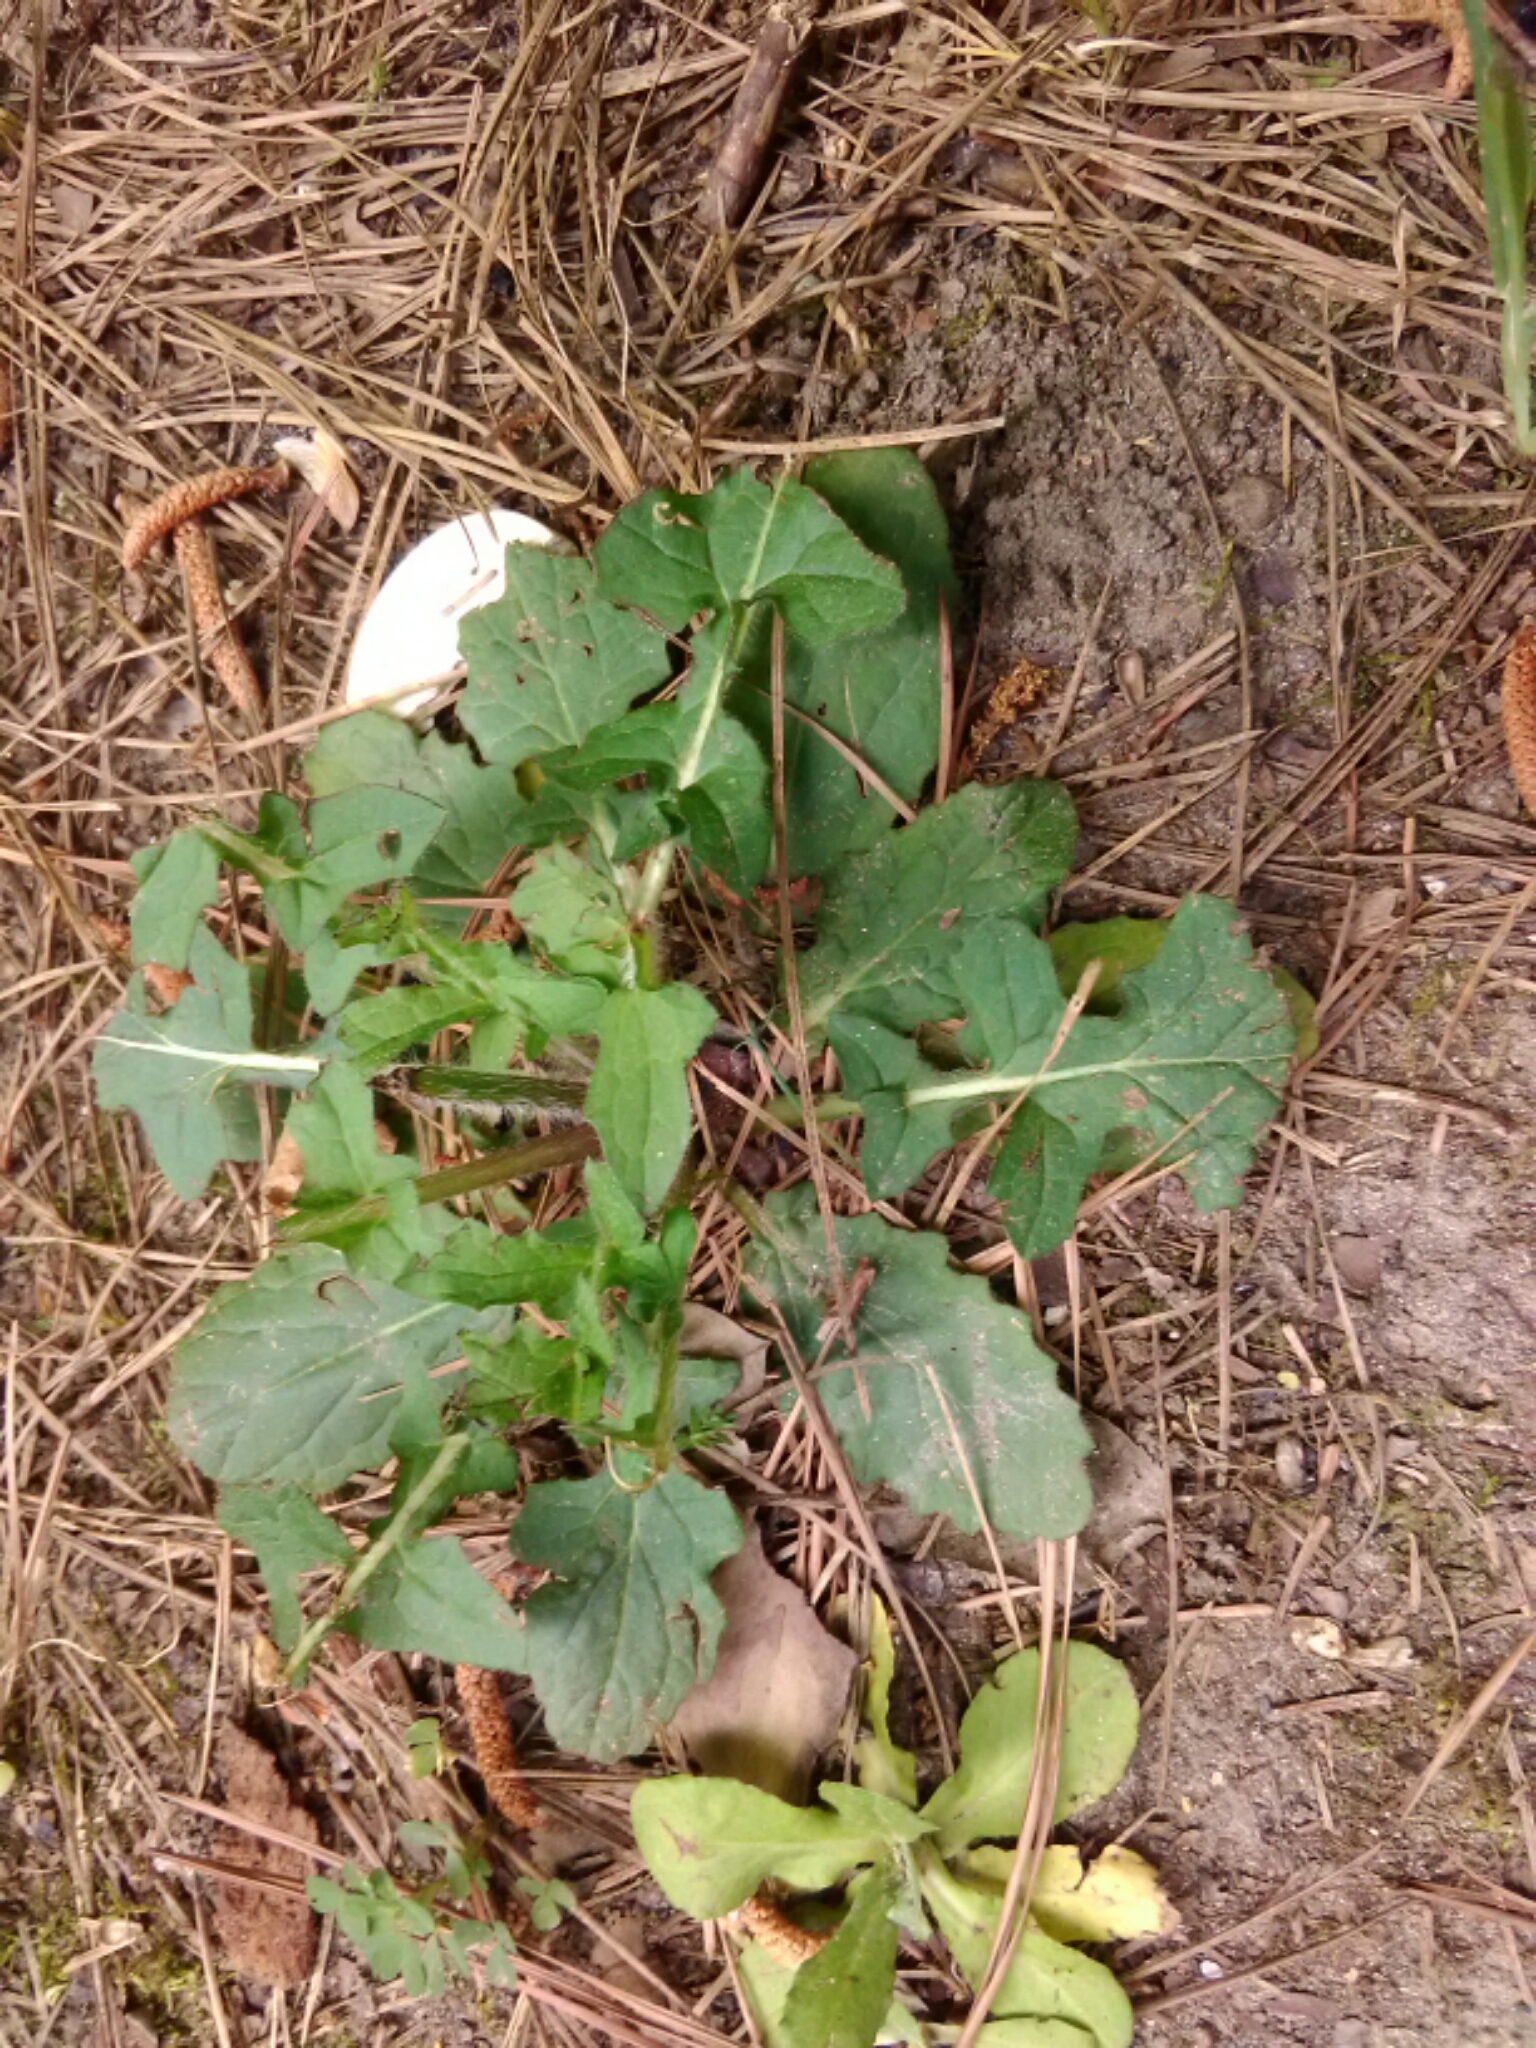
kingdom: Plantae
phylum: Tracheophyta
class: Magnoliopsida
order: Lamiales
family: Lamiaceae
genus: Salvia
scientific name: Salvia lyrata
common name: Cancerweed
